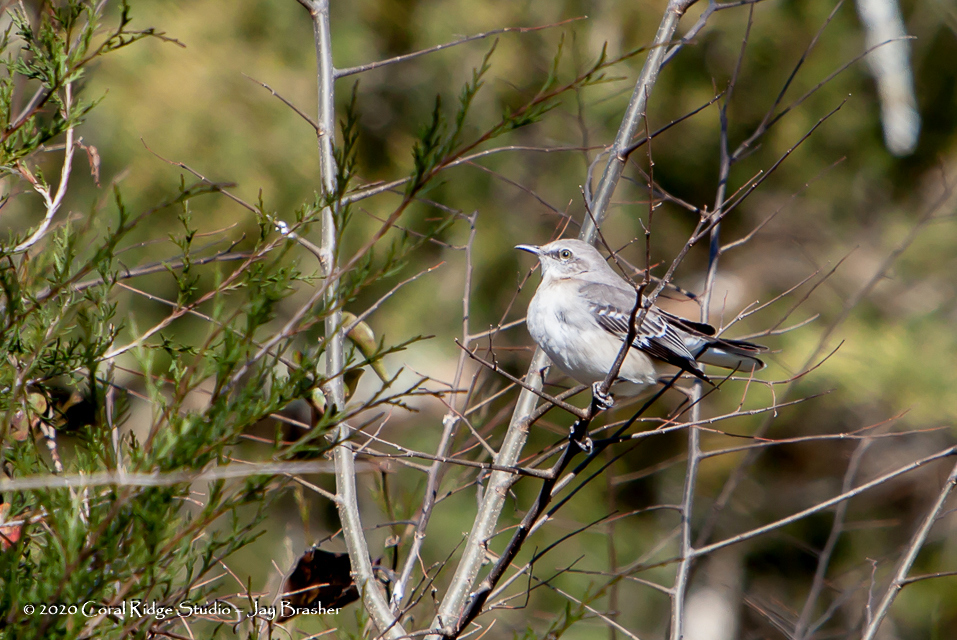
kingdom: Animalia
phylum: Chordata
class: Aves
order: Passeriformes
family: Mimidae
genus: Mimus
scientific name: Mimus polyglottos
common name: Northern mockingbird
